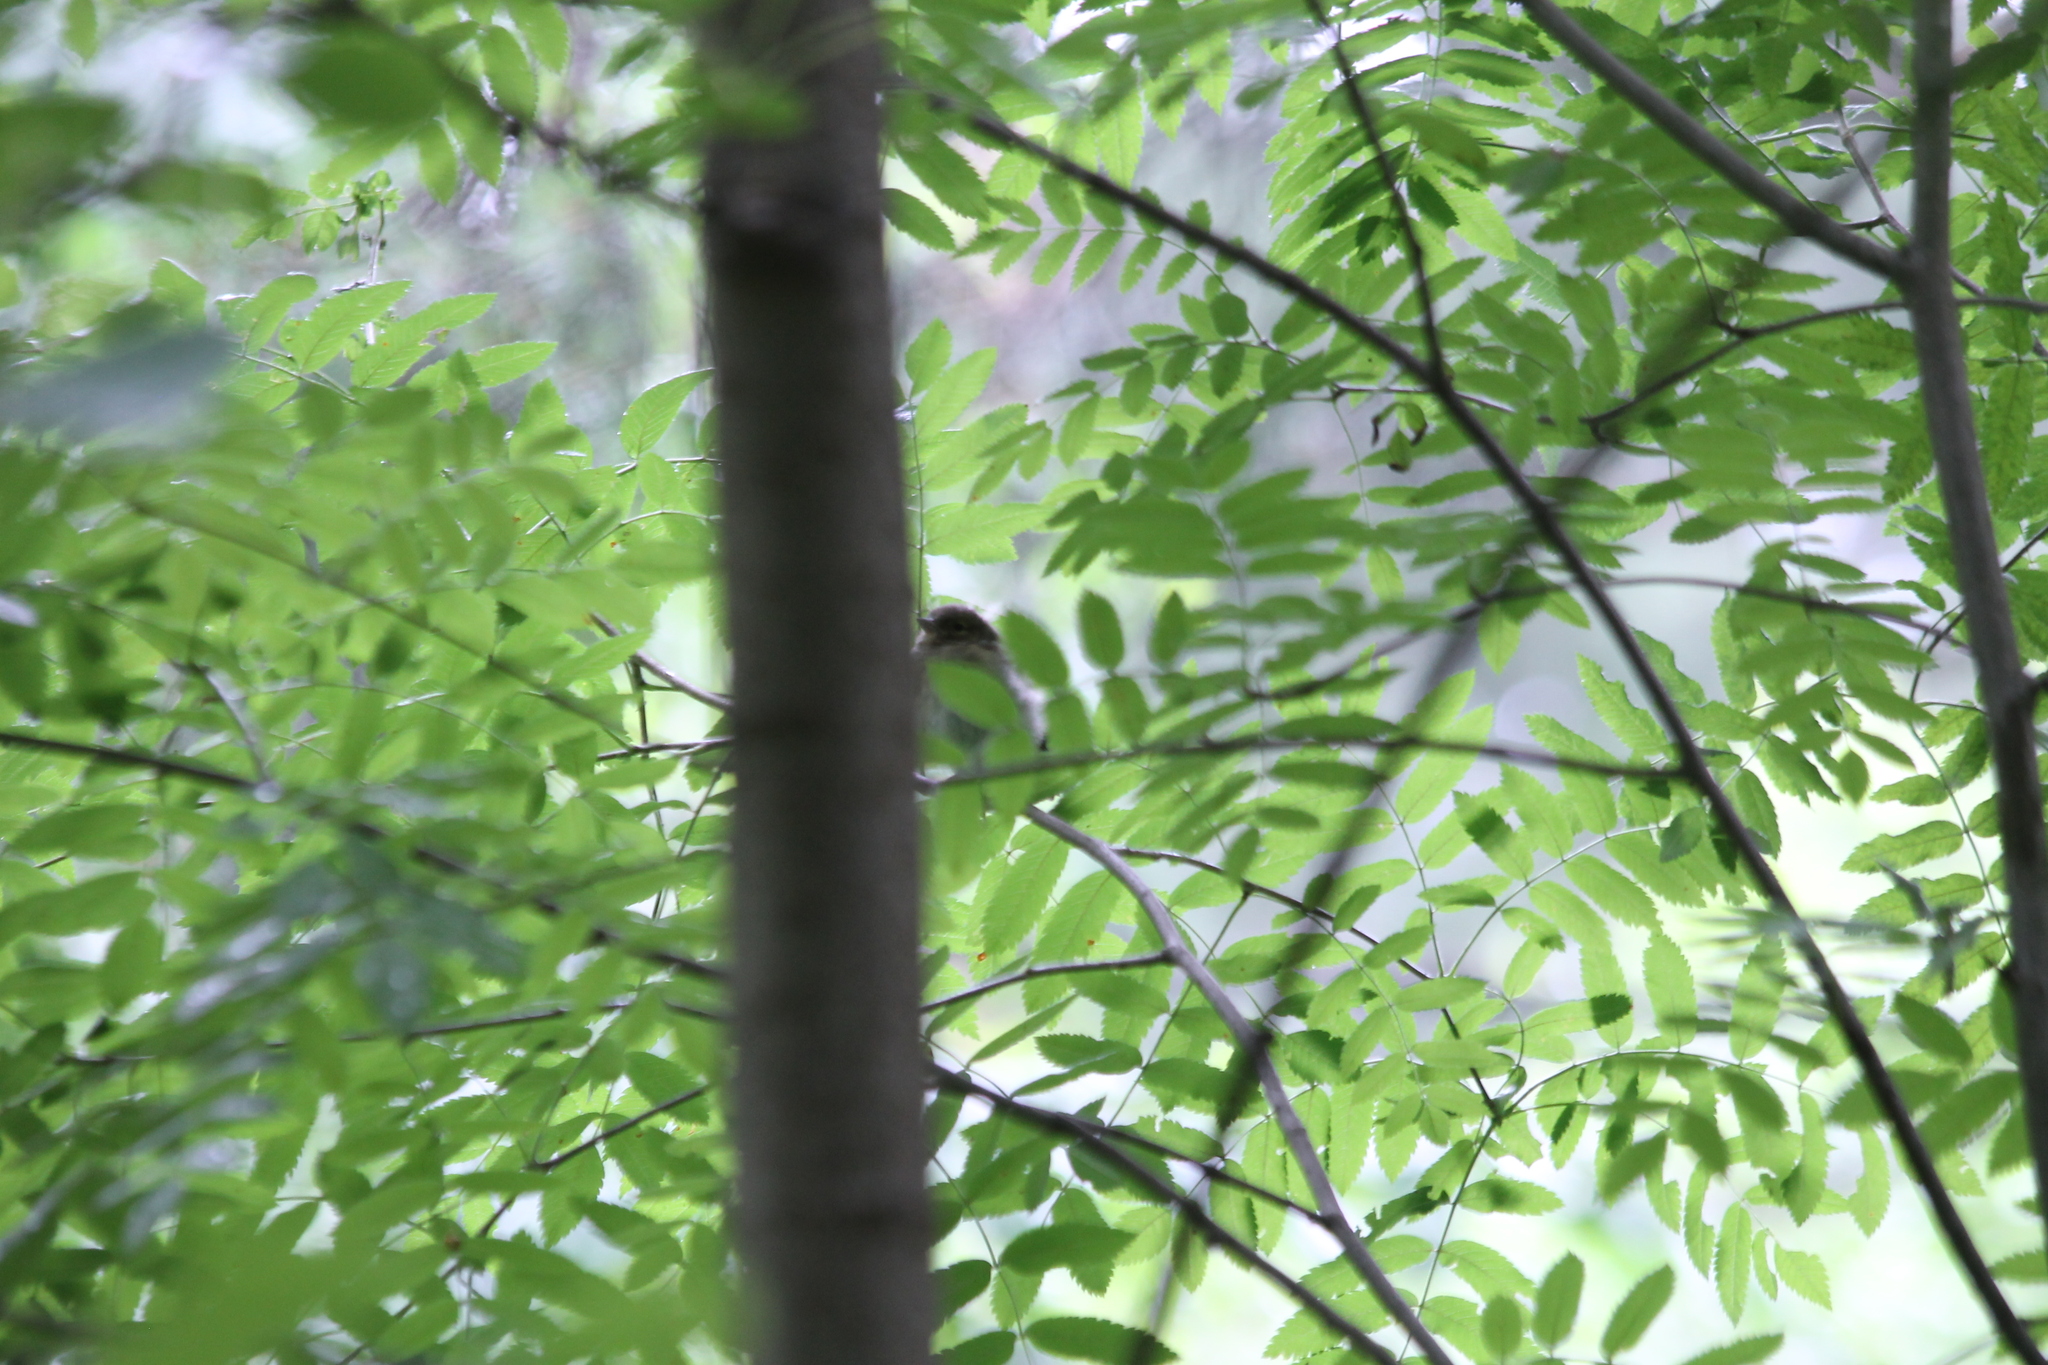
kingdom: Animalia
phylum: Chordata
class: Aves
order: Passeriformes
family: Fringillidae
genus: Fringilla
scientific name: Fringilla coelebs
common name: Common chaffinch
